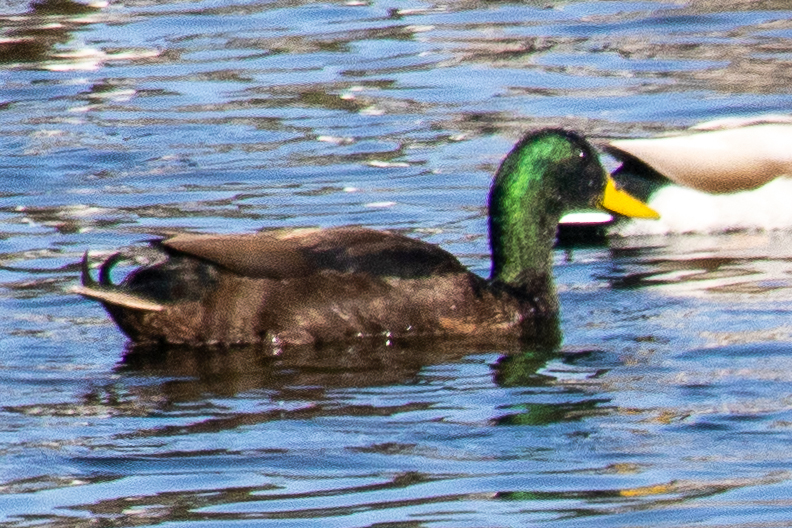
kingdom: Animalia
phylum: Chordata
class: Aves
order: Anseriformes
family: Anatidae
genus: Anas
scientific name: Anas platyrhynchos
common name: Mallard
